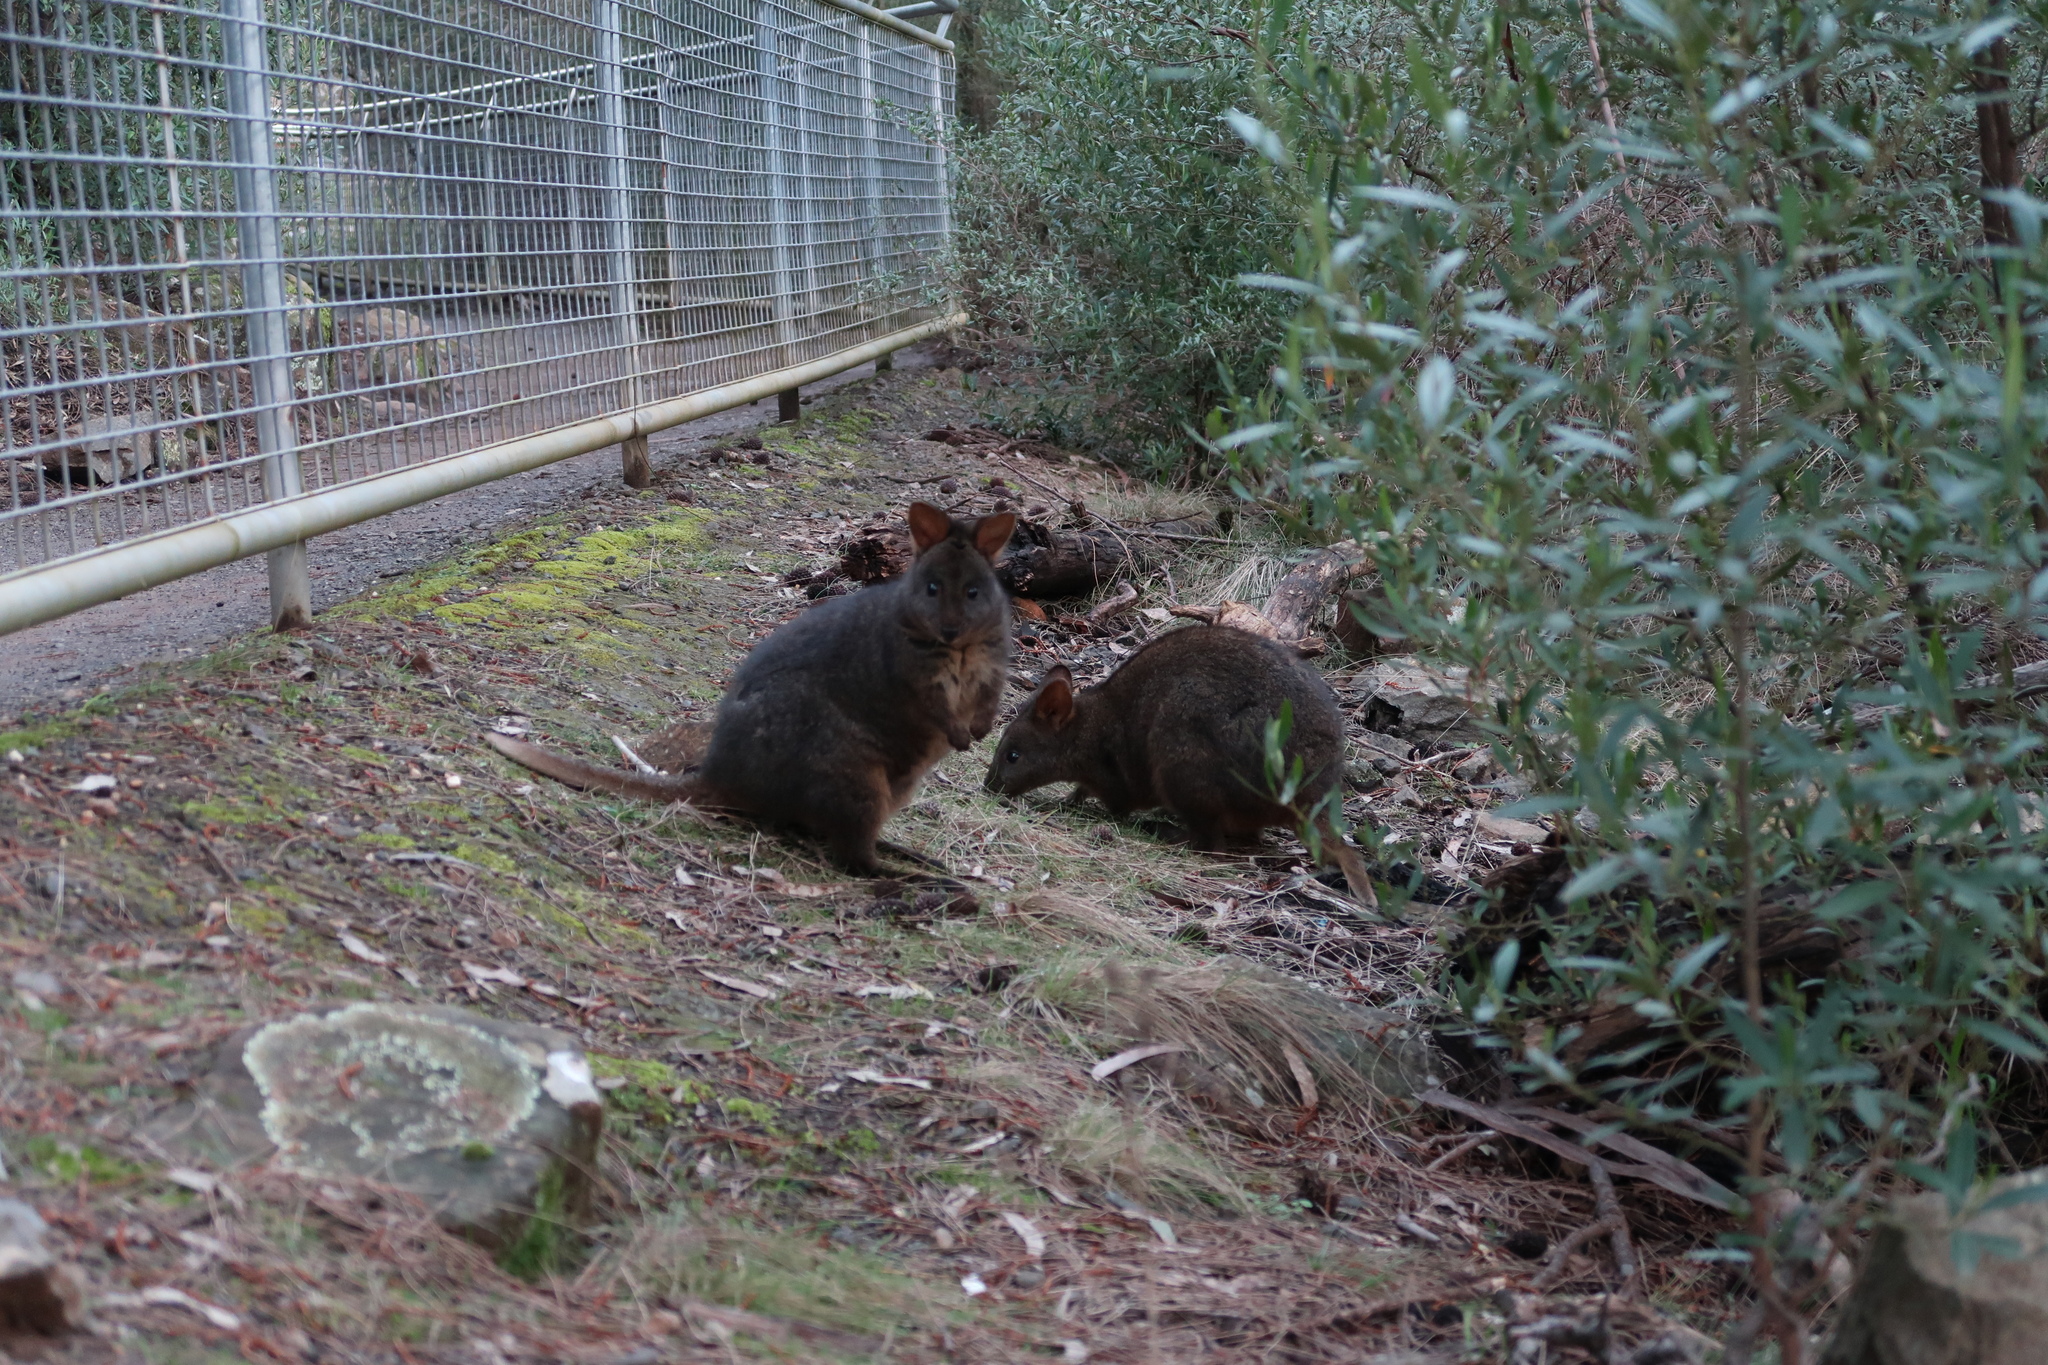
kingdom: Animalia
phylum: Chordata
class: Mammalia
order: Diprotodontia
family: Macropodidae
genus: Thylogale
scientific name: Thylogale billardierii
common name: Tasmanian pademelon
